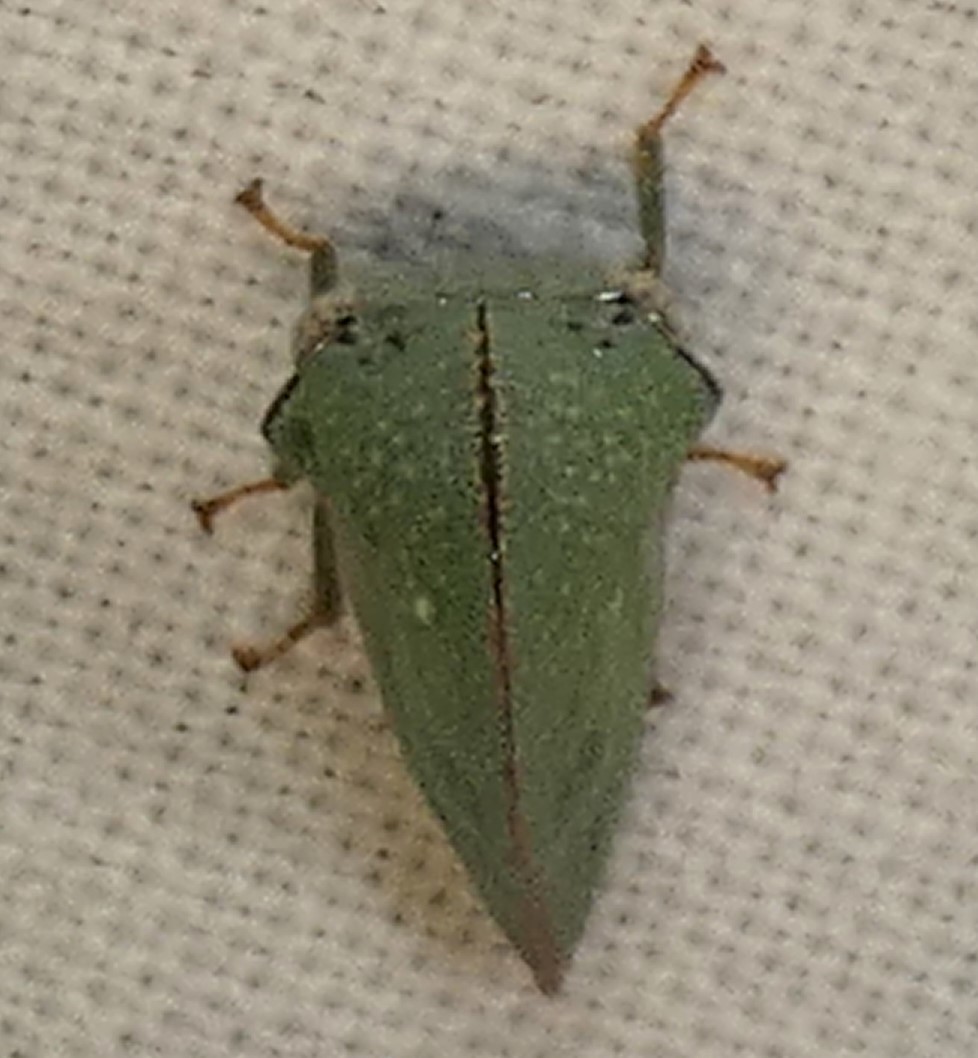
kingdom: Animalia
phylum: Arthropoda
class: Insecta
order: Hemiptera
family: Membracidae
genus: Archasia
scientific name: Archasia pallida
